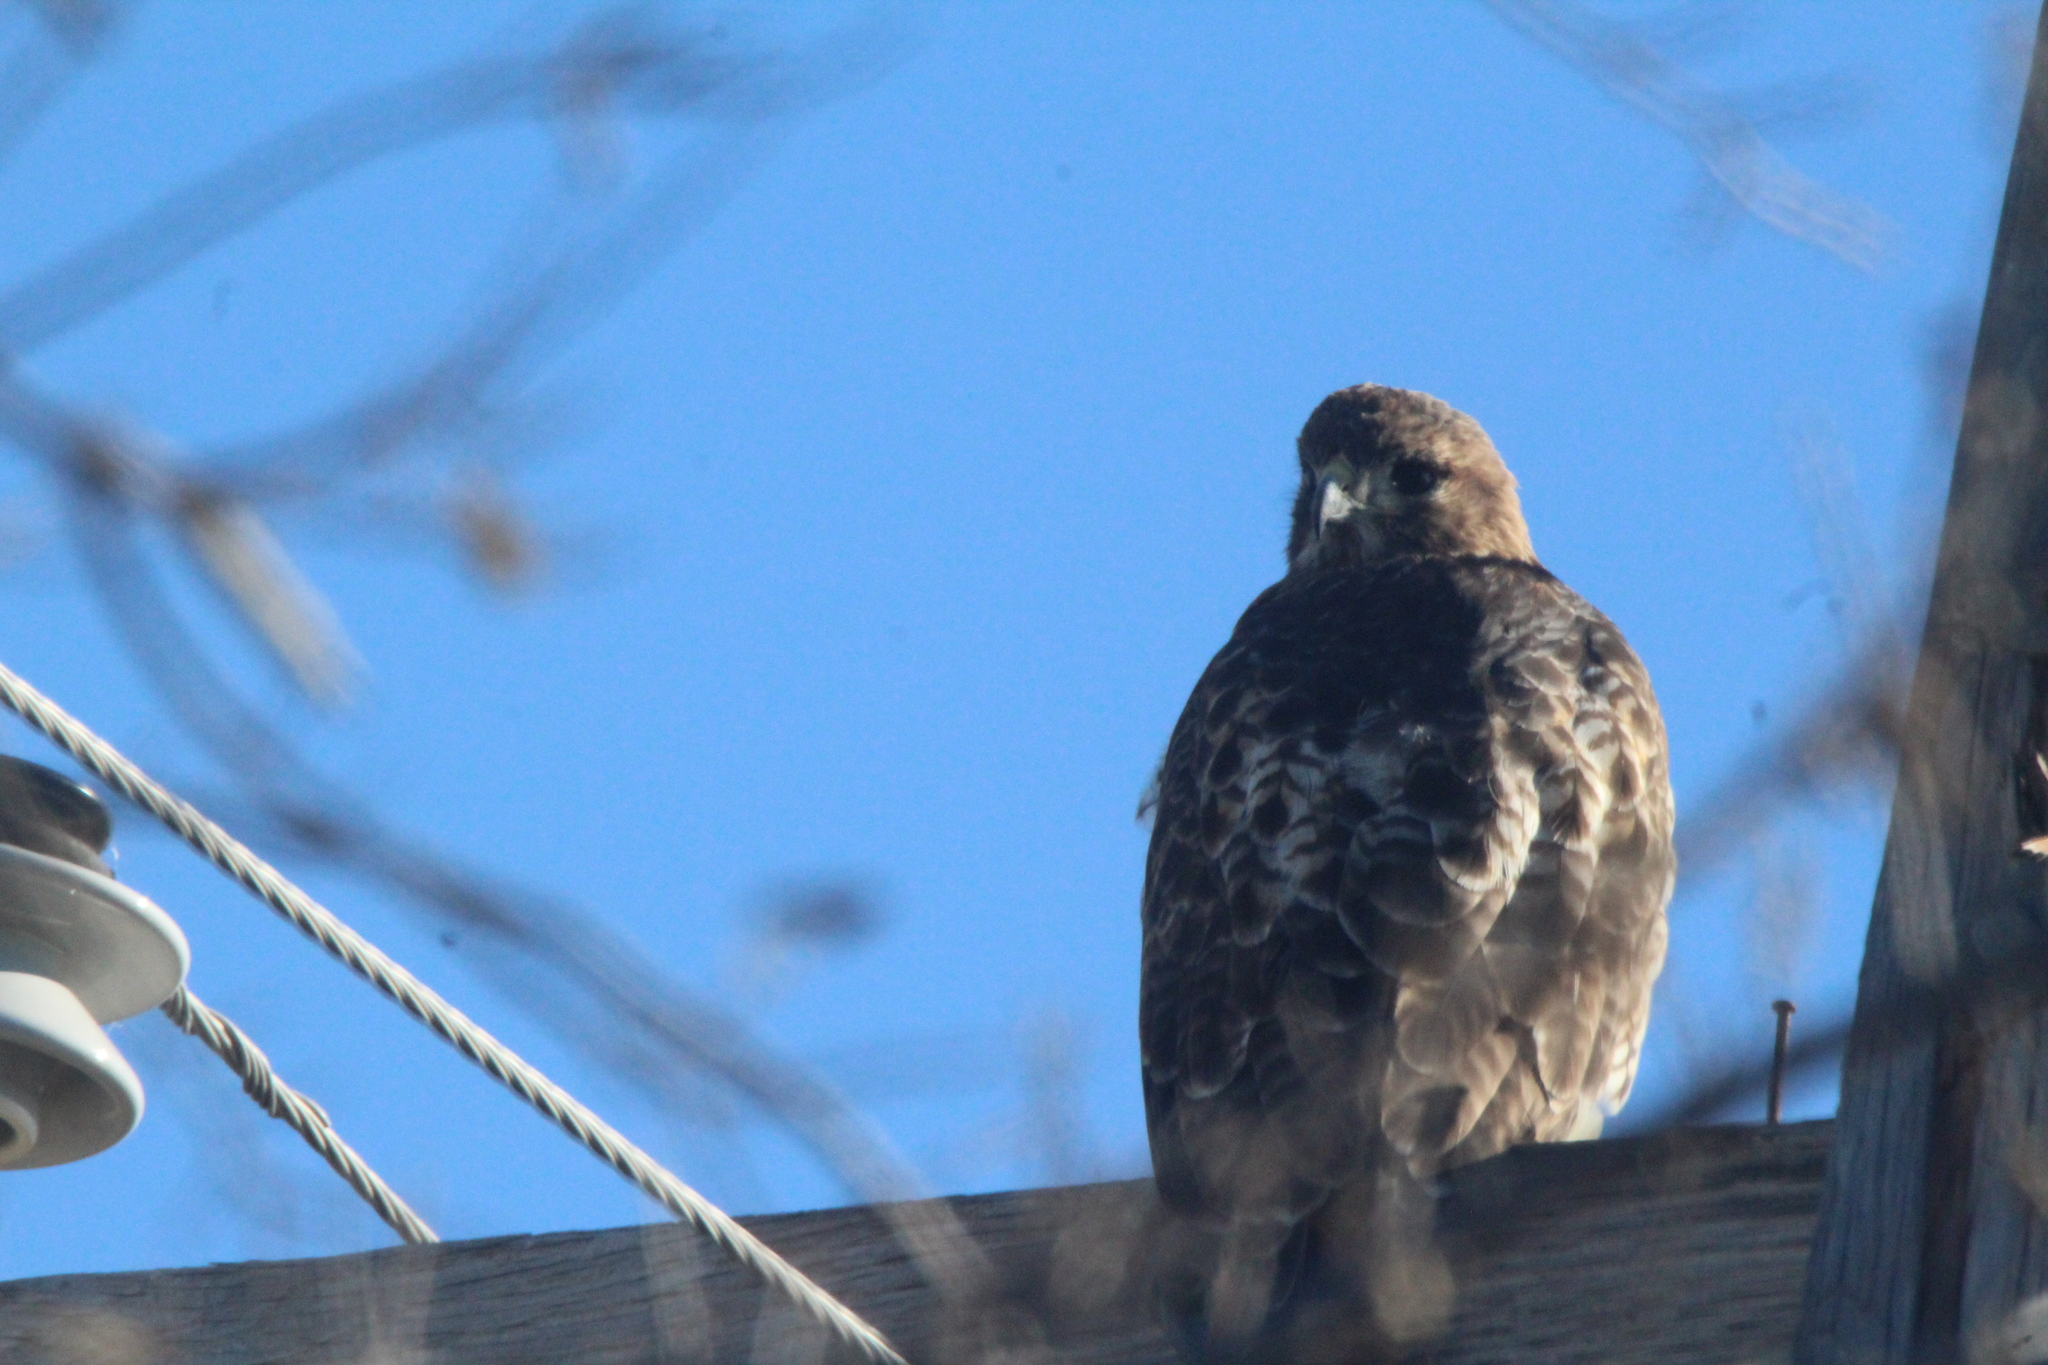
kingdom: Animalia
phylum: Chordata
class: Aves
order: Accipitriformes
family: Accipitridae
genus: Buteo
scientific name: Buteo jamaicensis
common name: Red-tailed hawk
